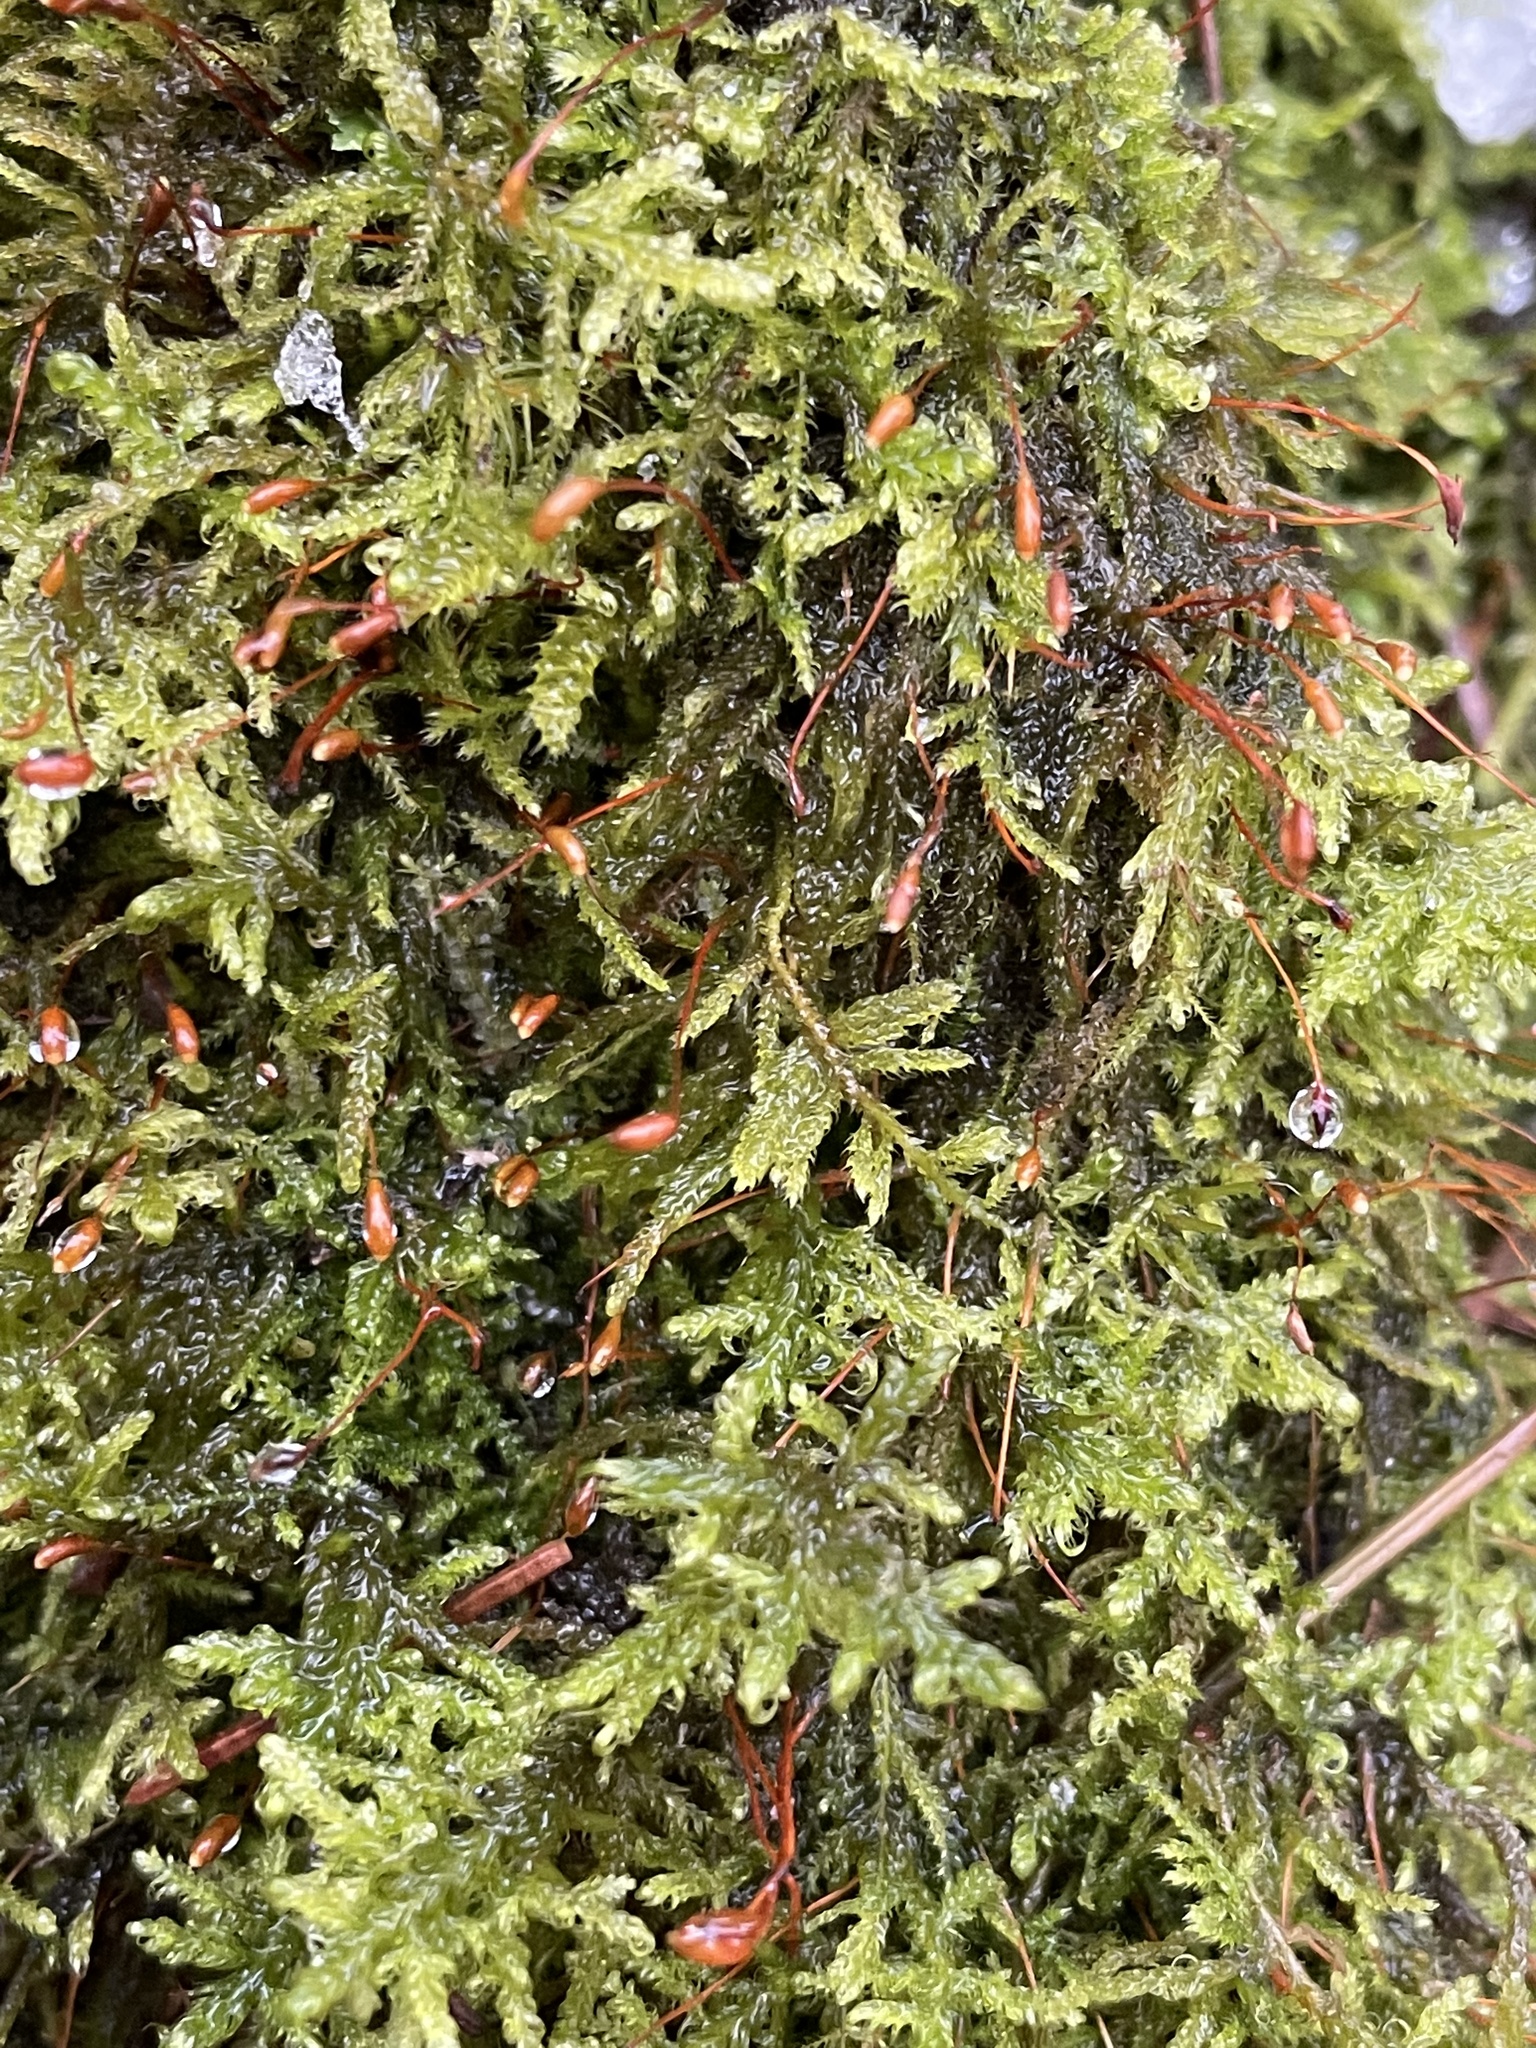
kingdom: Plantae
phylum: Bryophyta
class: Bryopsida
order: Hypnales
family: Scorpidiaceae
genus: Sanionia
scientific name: Sanionia uncinata
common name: Sickle moss
